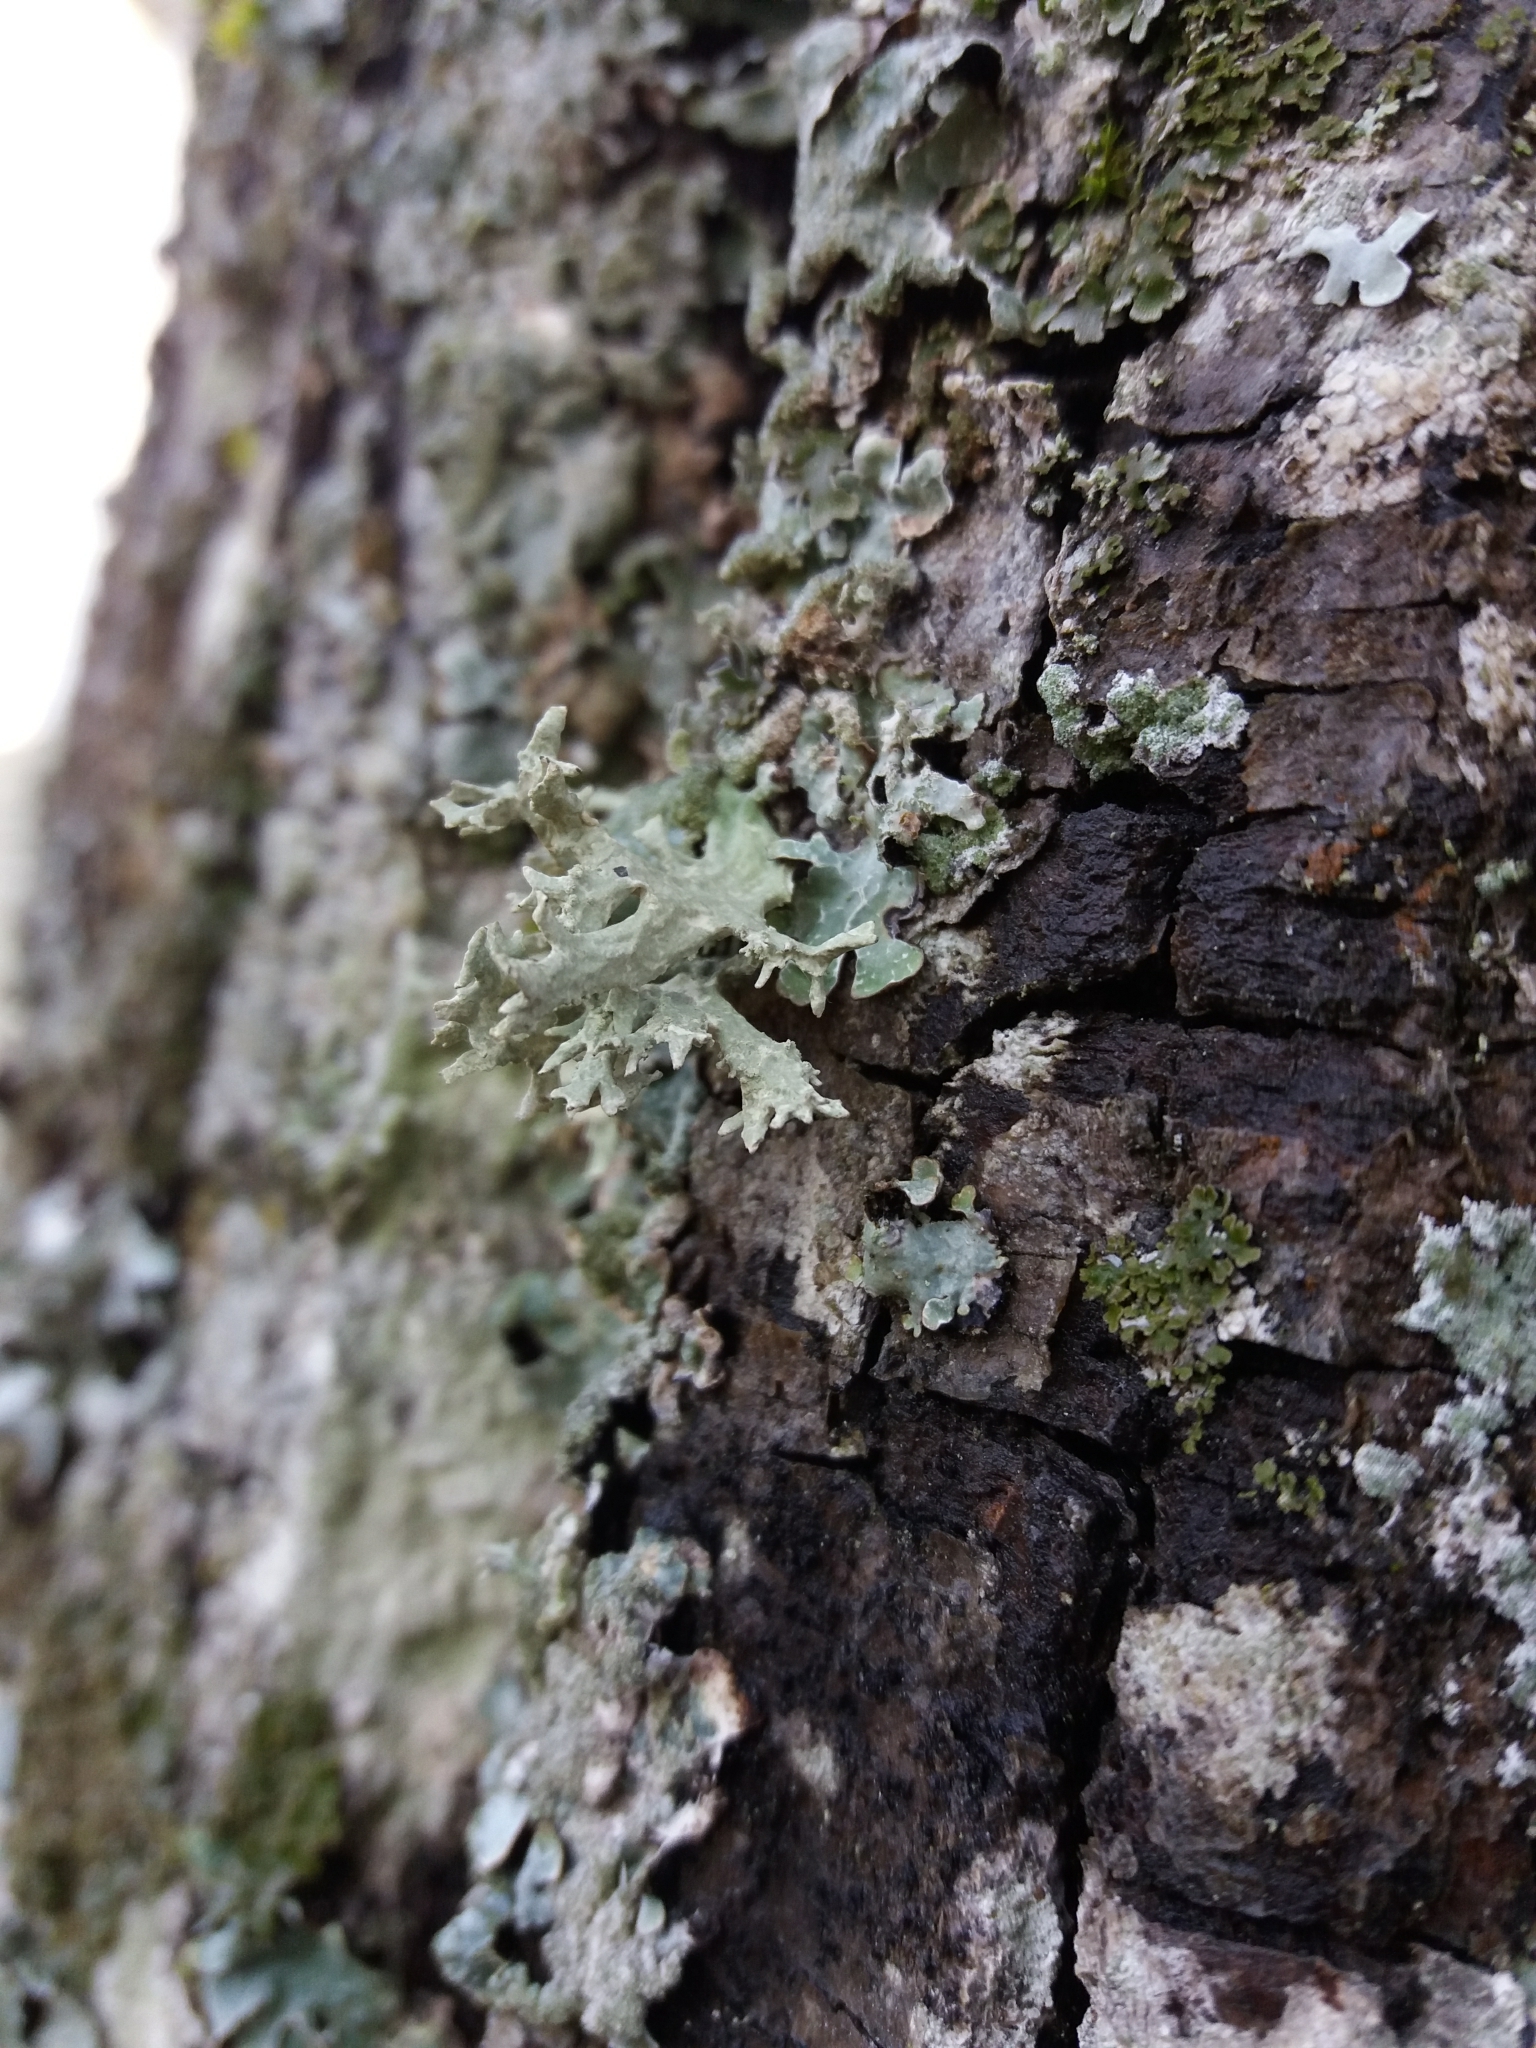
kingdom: Fungi
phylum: Ascomycota
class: Lecanoromycetes
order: Lecanorales
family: Parmeliaceae
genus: Evernia
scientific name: Evernia prunastri
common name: Oak moss
